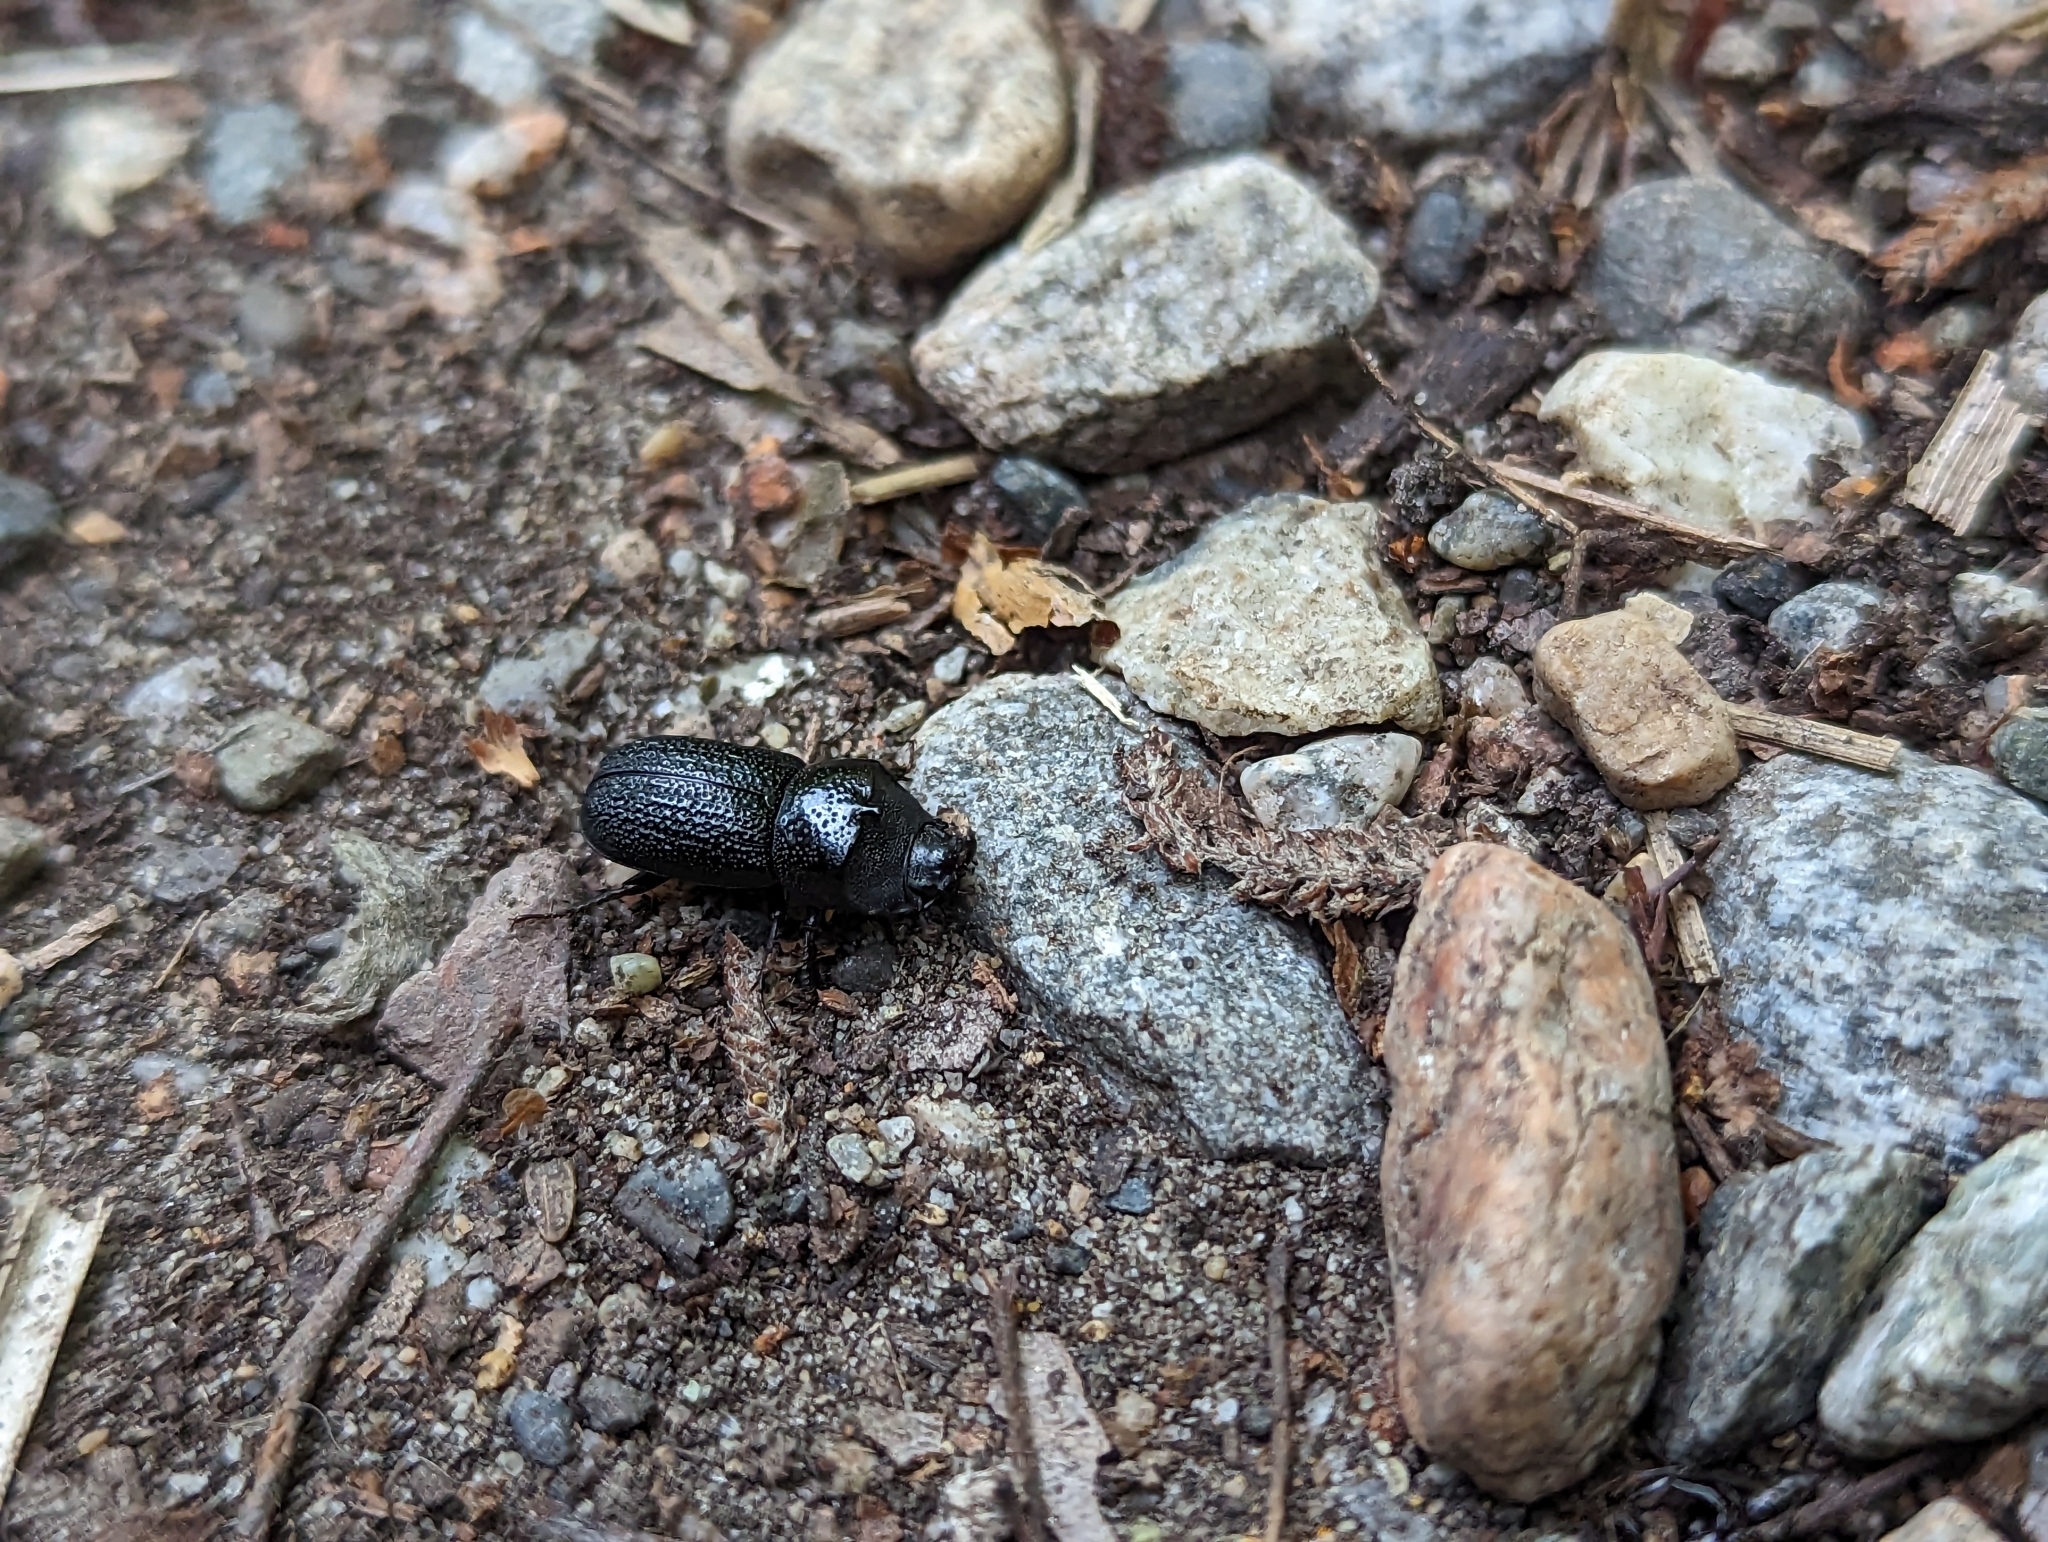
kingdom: Animalia
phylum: Arthropoda
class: Insecta
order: Coleoptera
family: Lucanidae
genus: Sinodendron
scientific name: Sinodendron rugosum
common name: Rugose stag beelte
